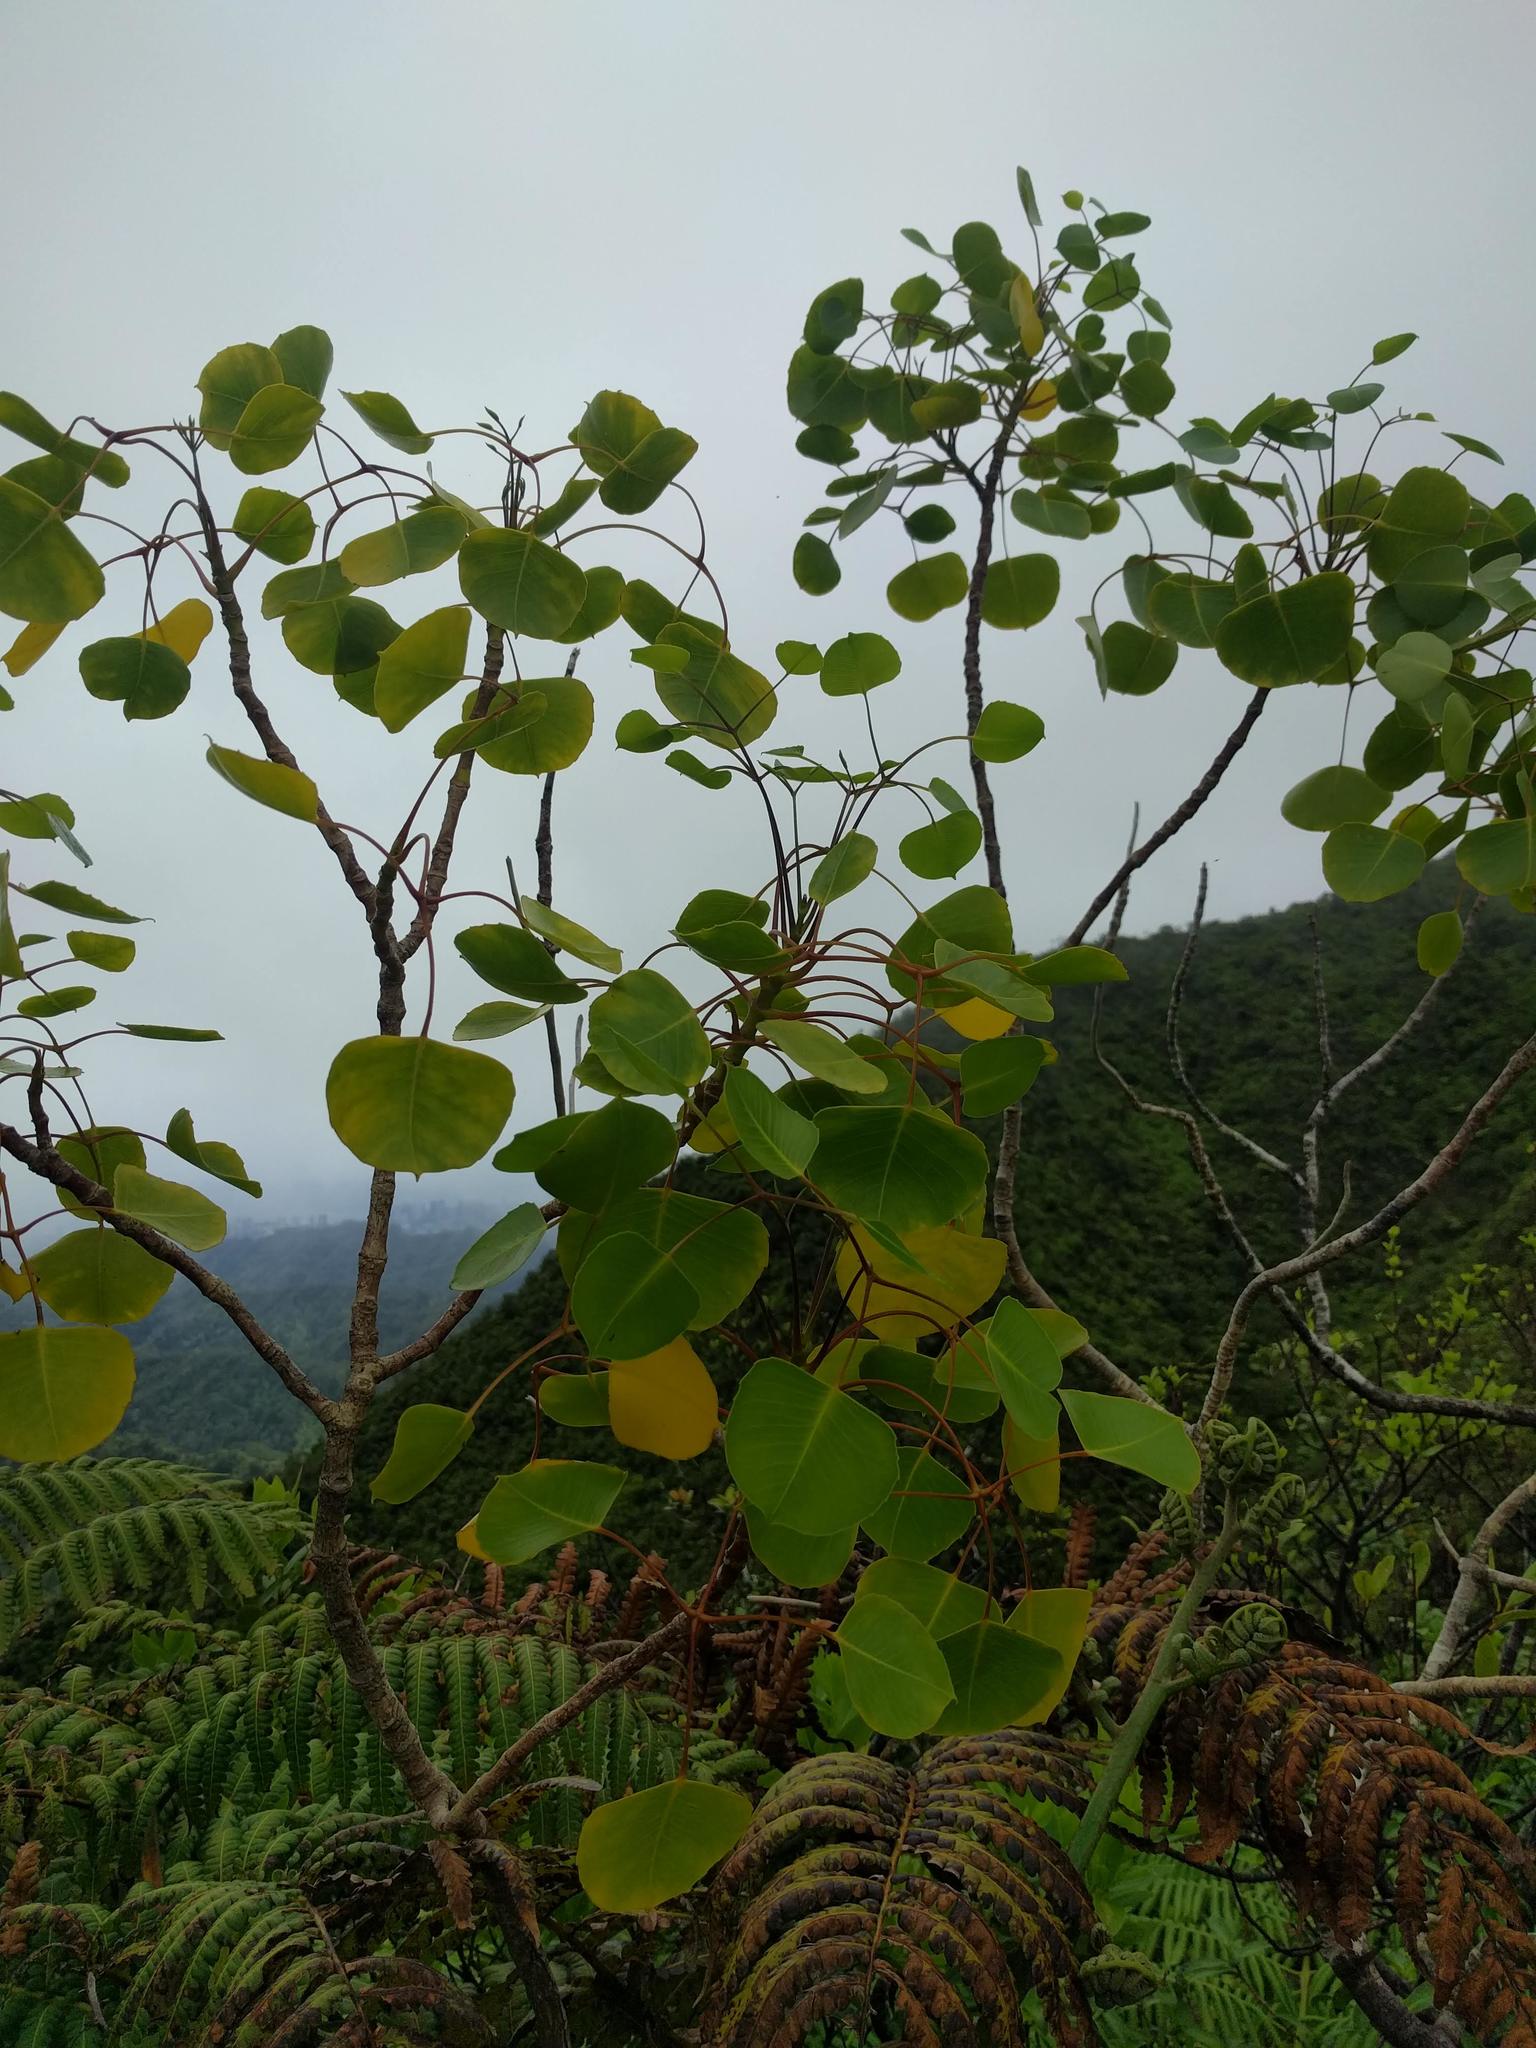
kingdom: Plantae
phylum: Tracheophyta
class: Magnoliopsida
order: Apiales
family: Araliaceae
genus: Cheirodendron
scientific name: Cheirodendron platyphyllum
